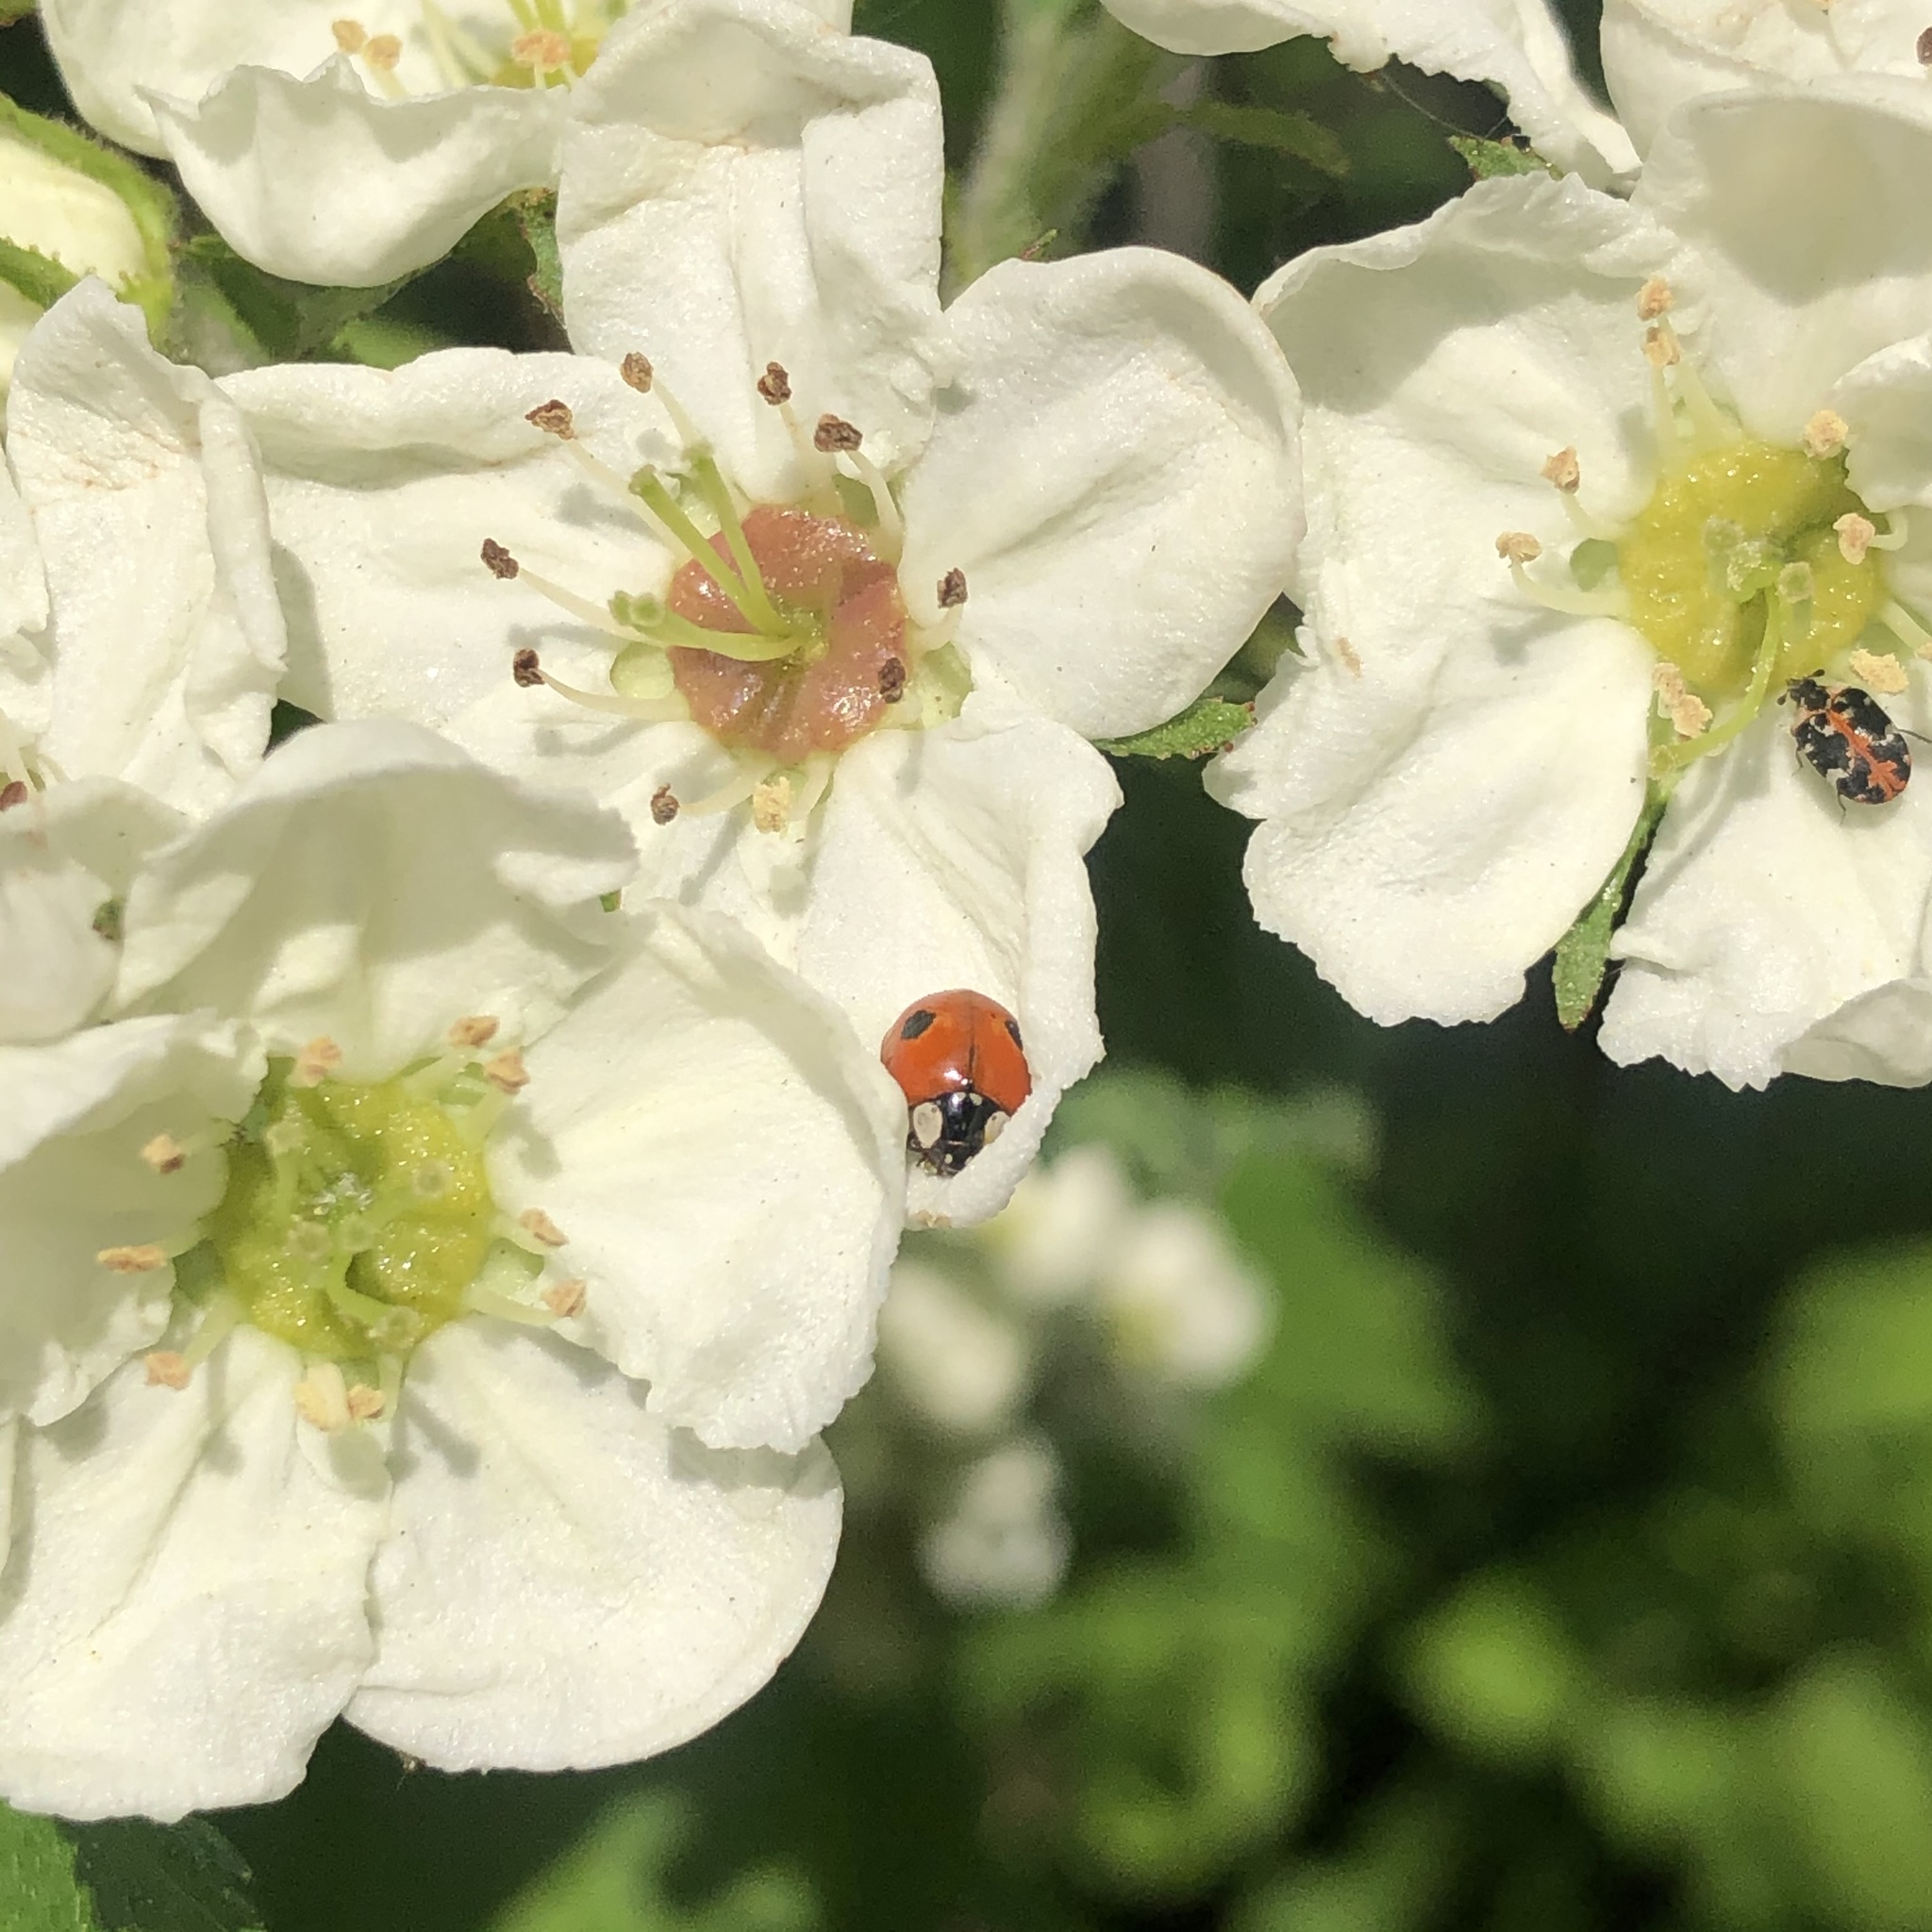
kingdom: Animalia
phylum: Arthropoda
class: Insecta
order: Coleoptera
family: Coccinellidae
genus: Adalia
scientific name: Adalia bipunctata
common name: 2-spot ladybird
